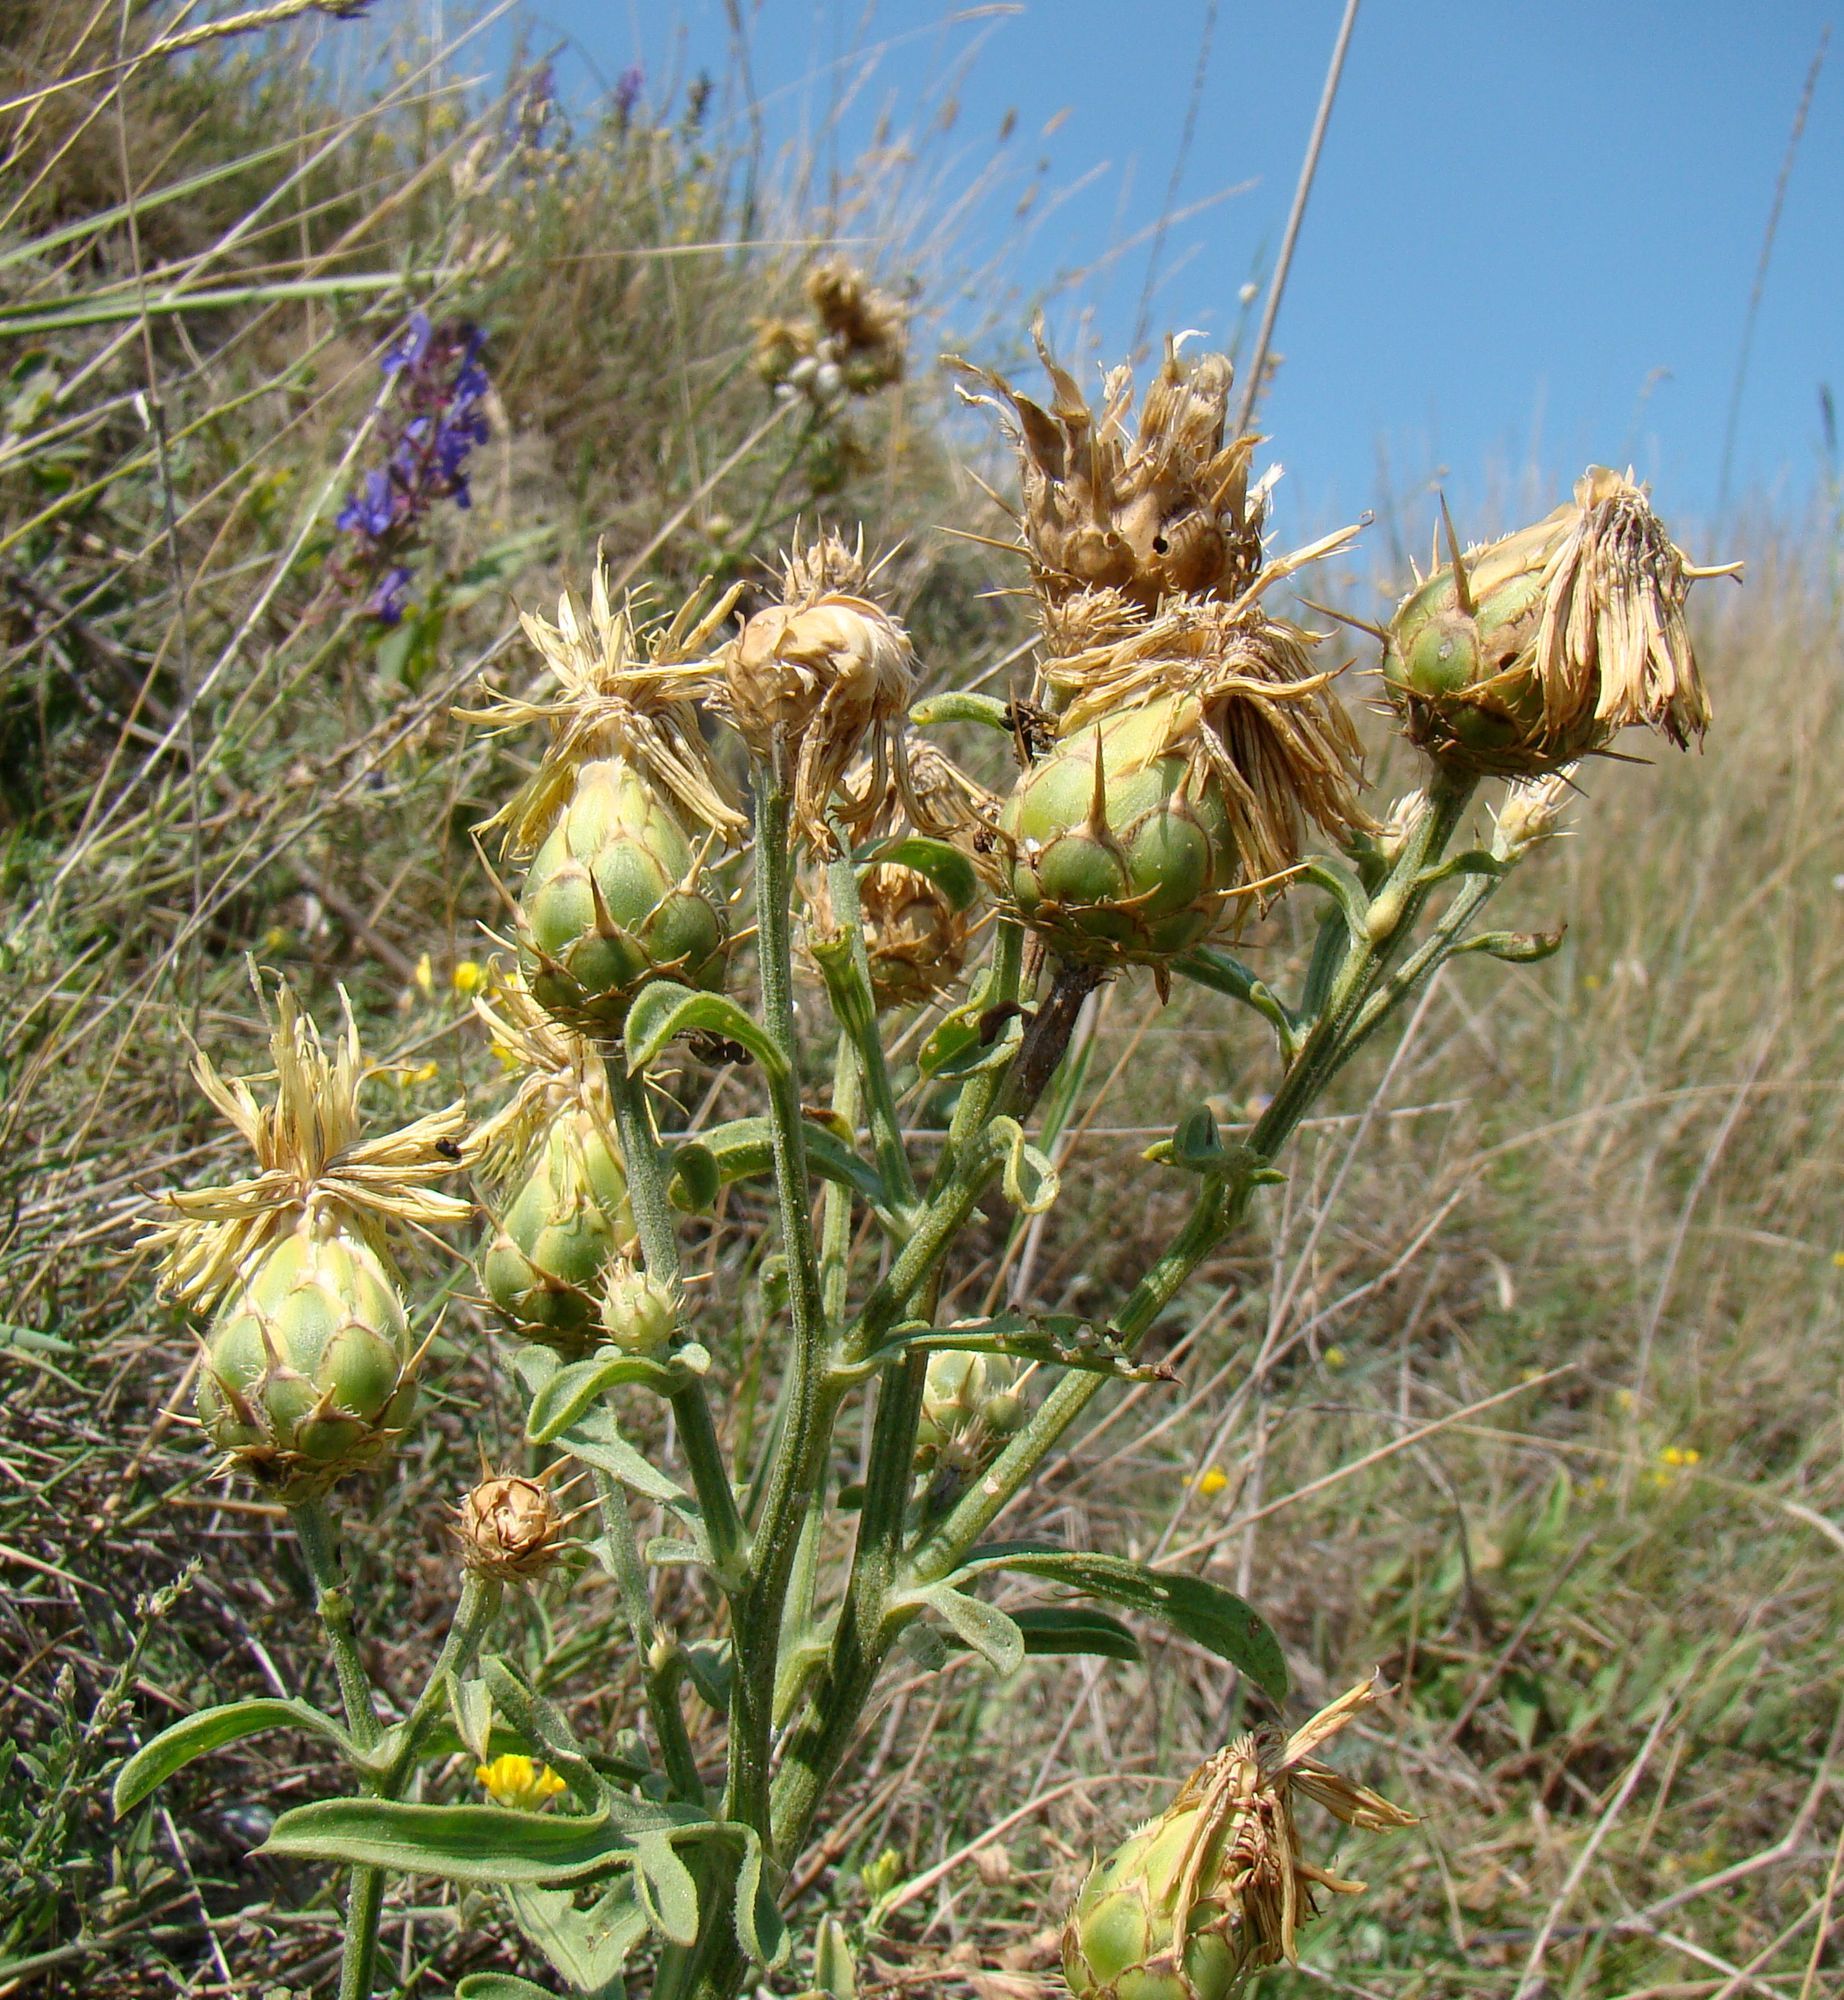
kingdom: Plantae
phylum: Tracheophyta
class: Magnoliopsida
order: Asterales
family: Asteraceae
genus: Centaurea
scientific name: Centaurea salonitana
